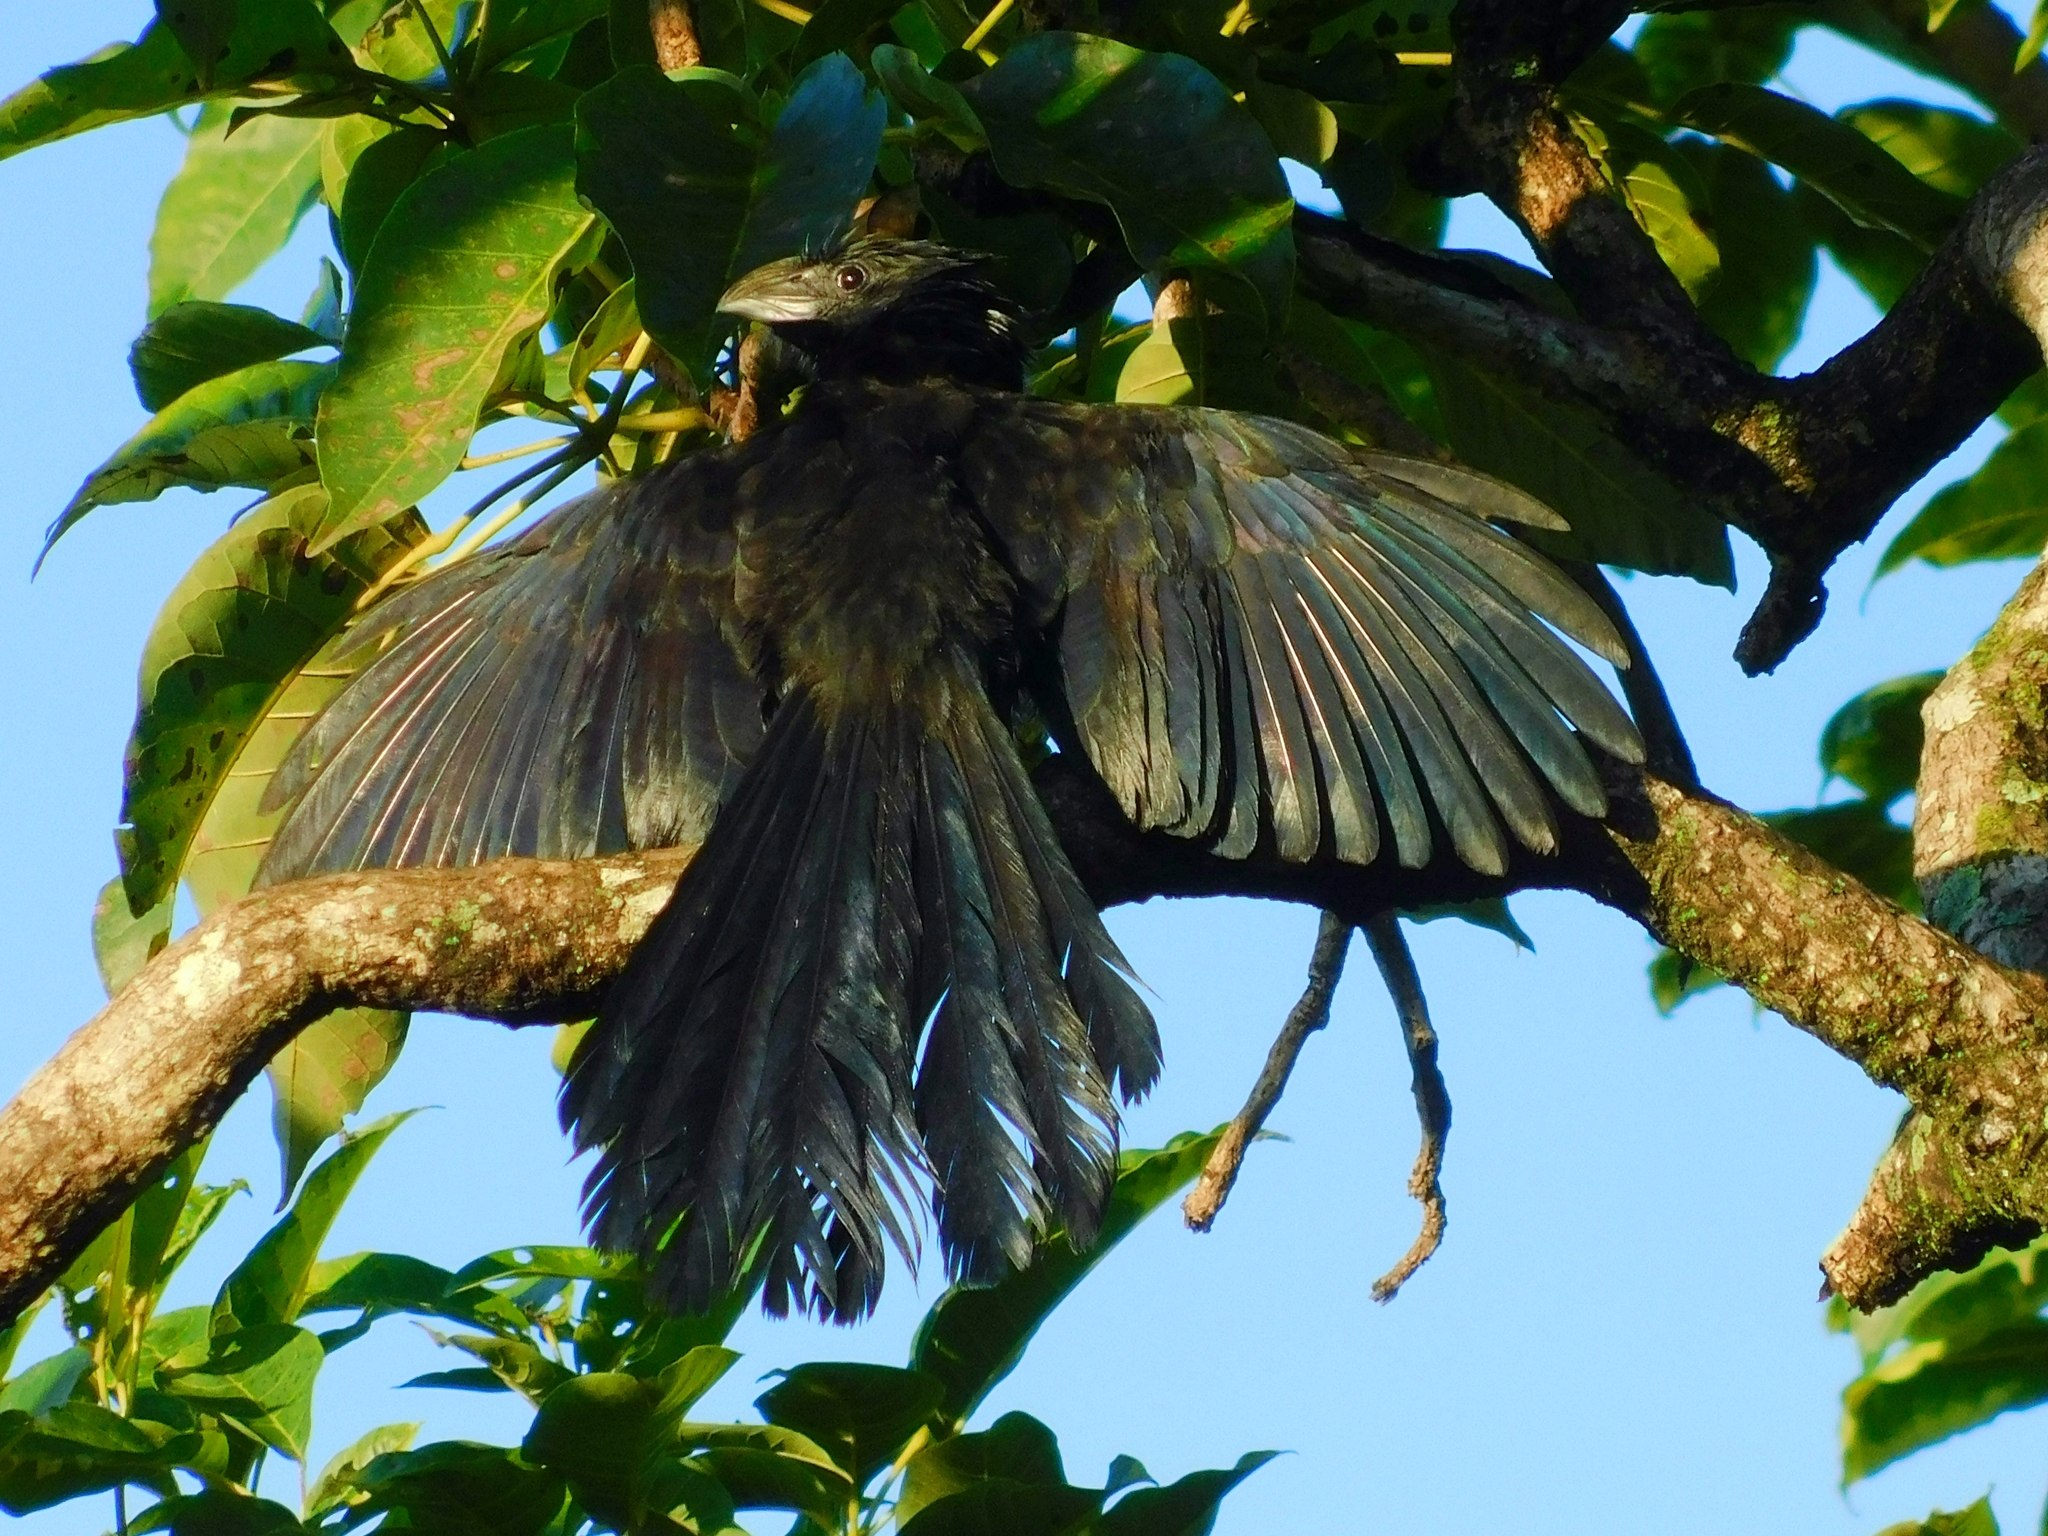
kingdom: Animalia
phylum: Chordata
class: Aves
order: Cuculiformes
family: Cuculidae
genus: Crotophaga
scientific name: Crotophaga sulcirostris
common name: Groove-billed ani
